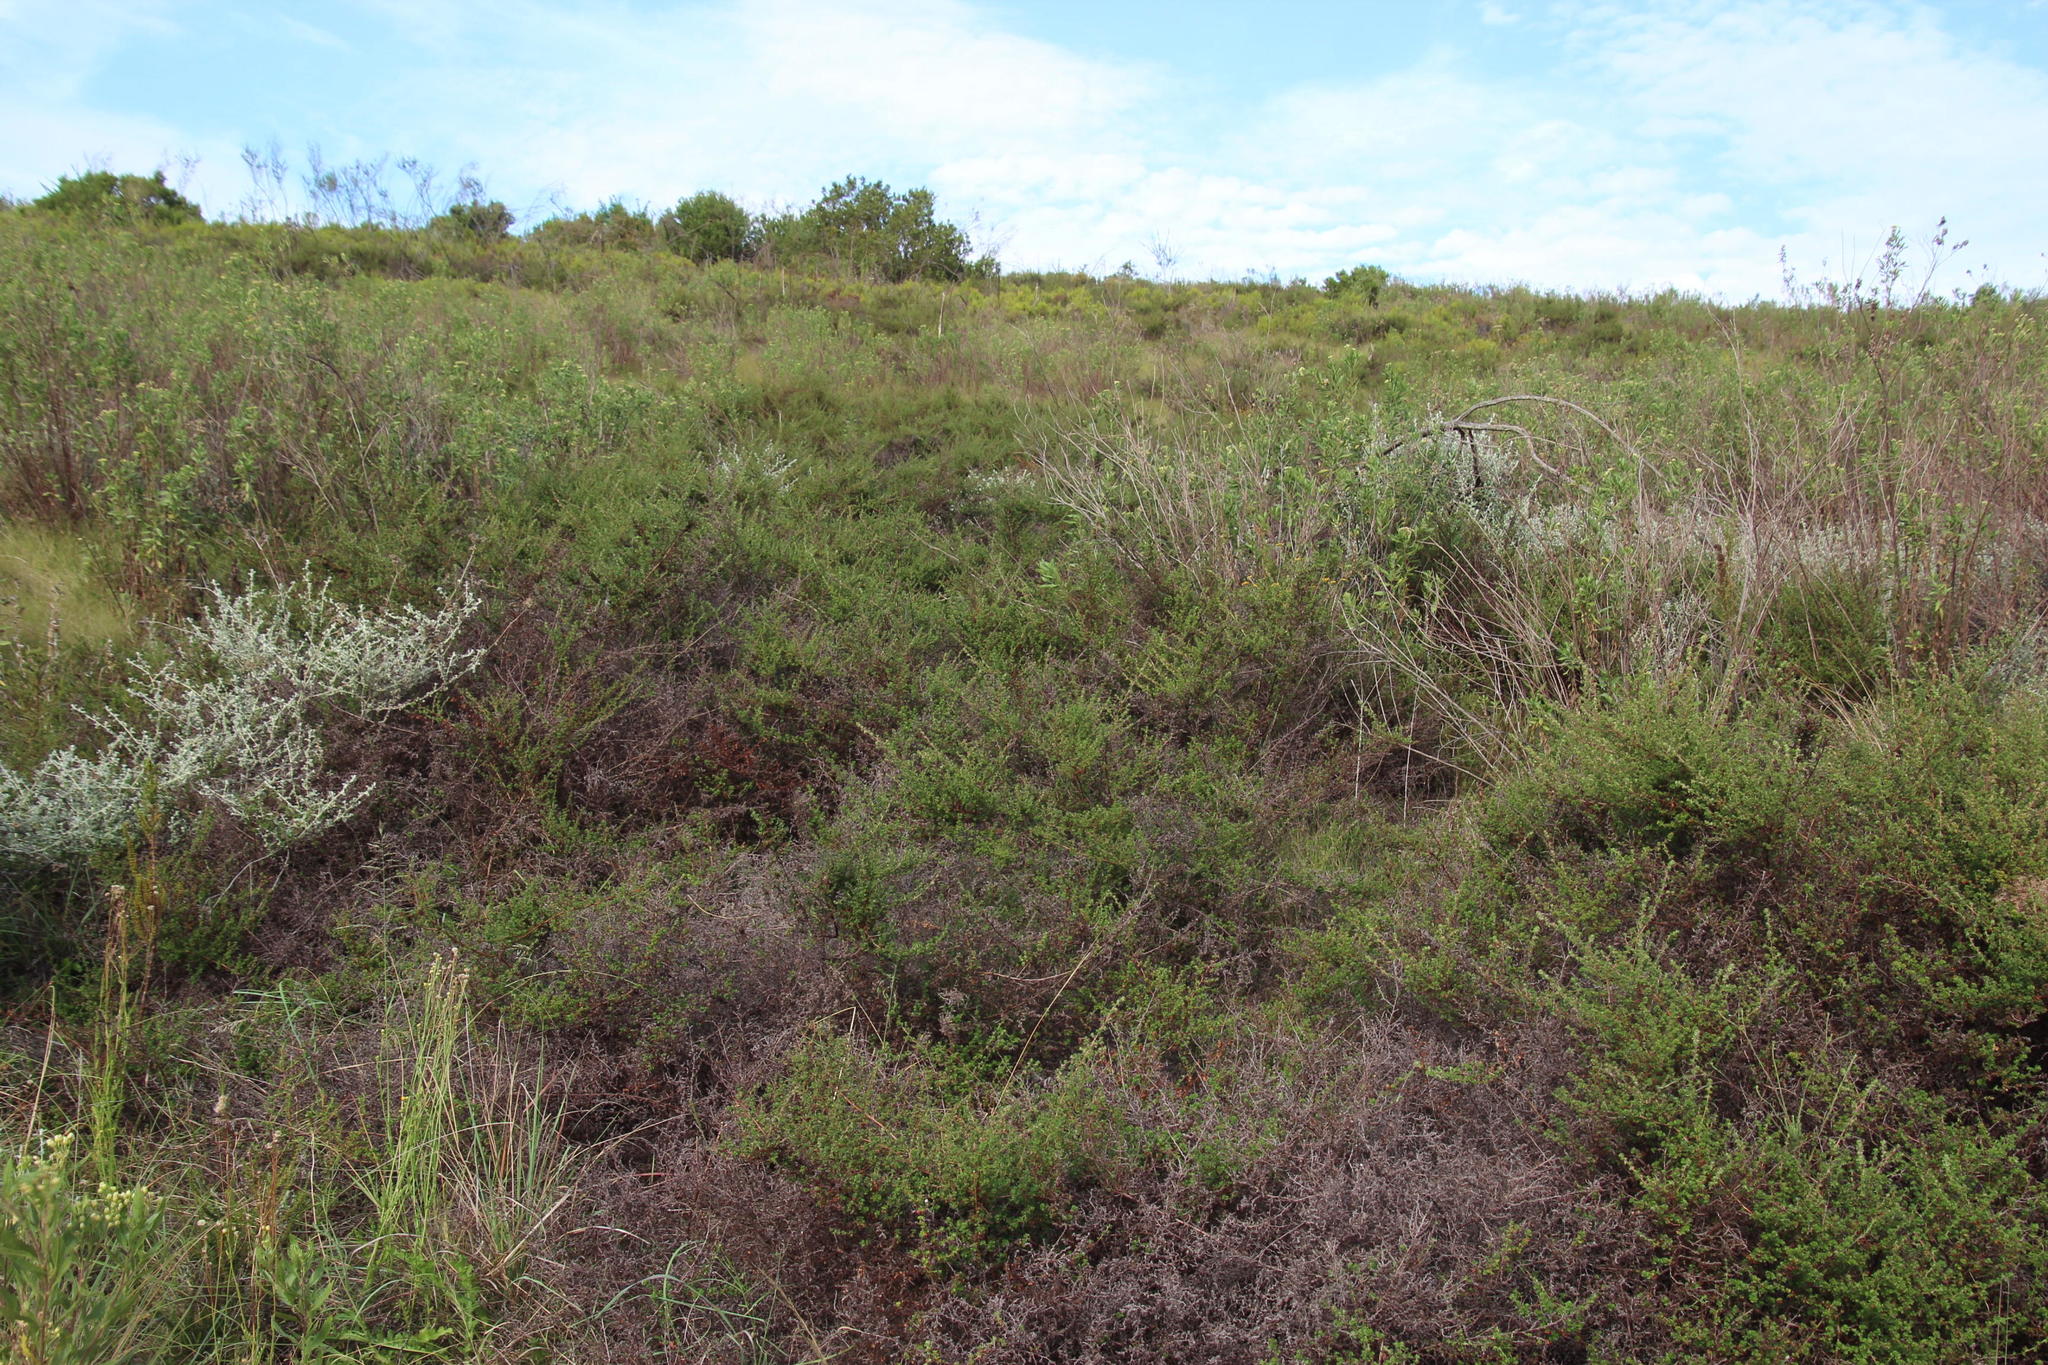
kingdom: Plantae
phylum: Tracheophyta
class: Magnoliopsida
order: Rosales
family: Rosaceae
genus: Cliffortia
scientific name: Cliffortia filicaulis
